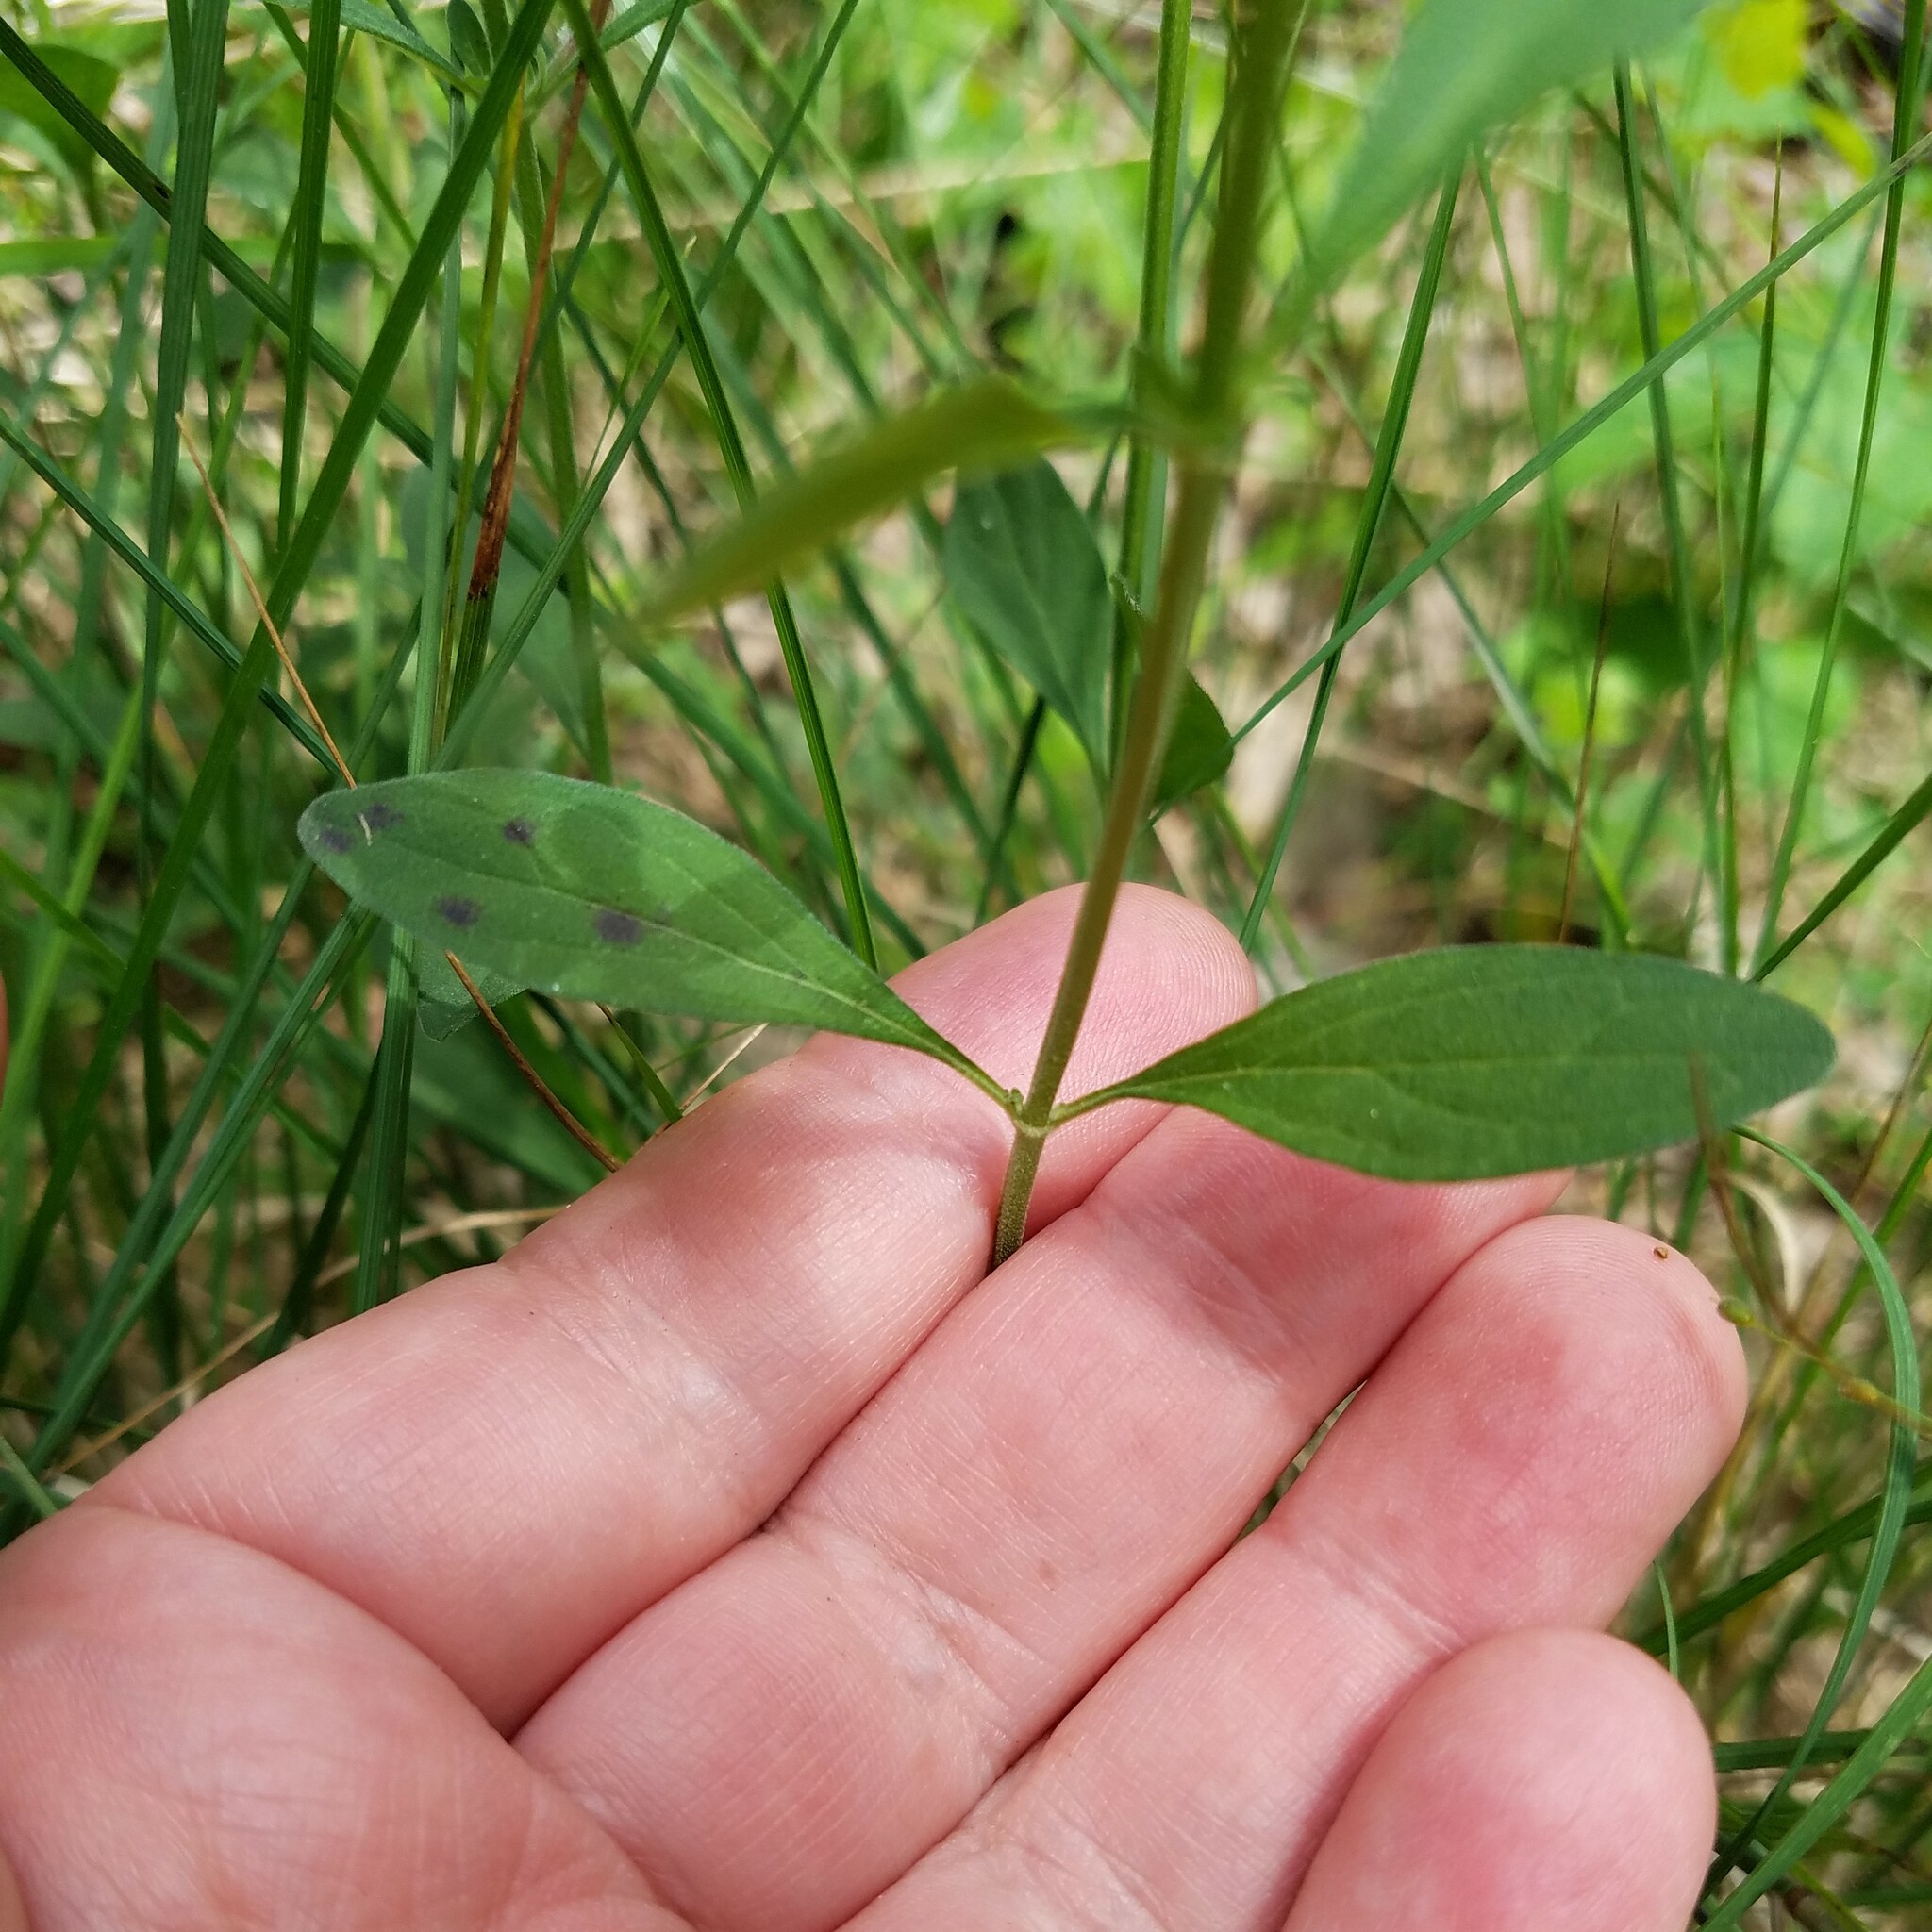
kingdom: Plantae
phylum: Tracheophyta
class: Magnoliopsida
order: Lamiales
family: Lamiaceae
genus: Scutellaria
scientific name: Scutellaria integrifolia
